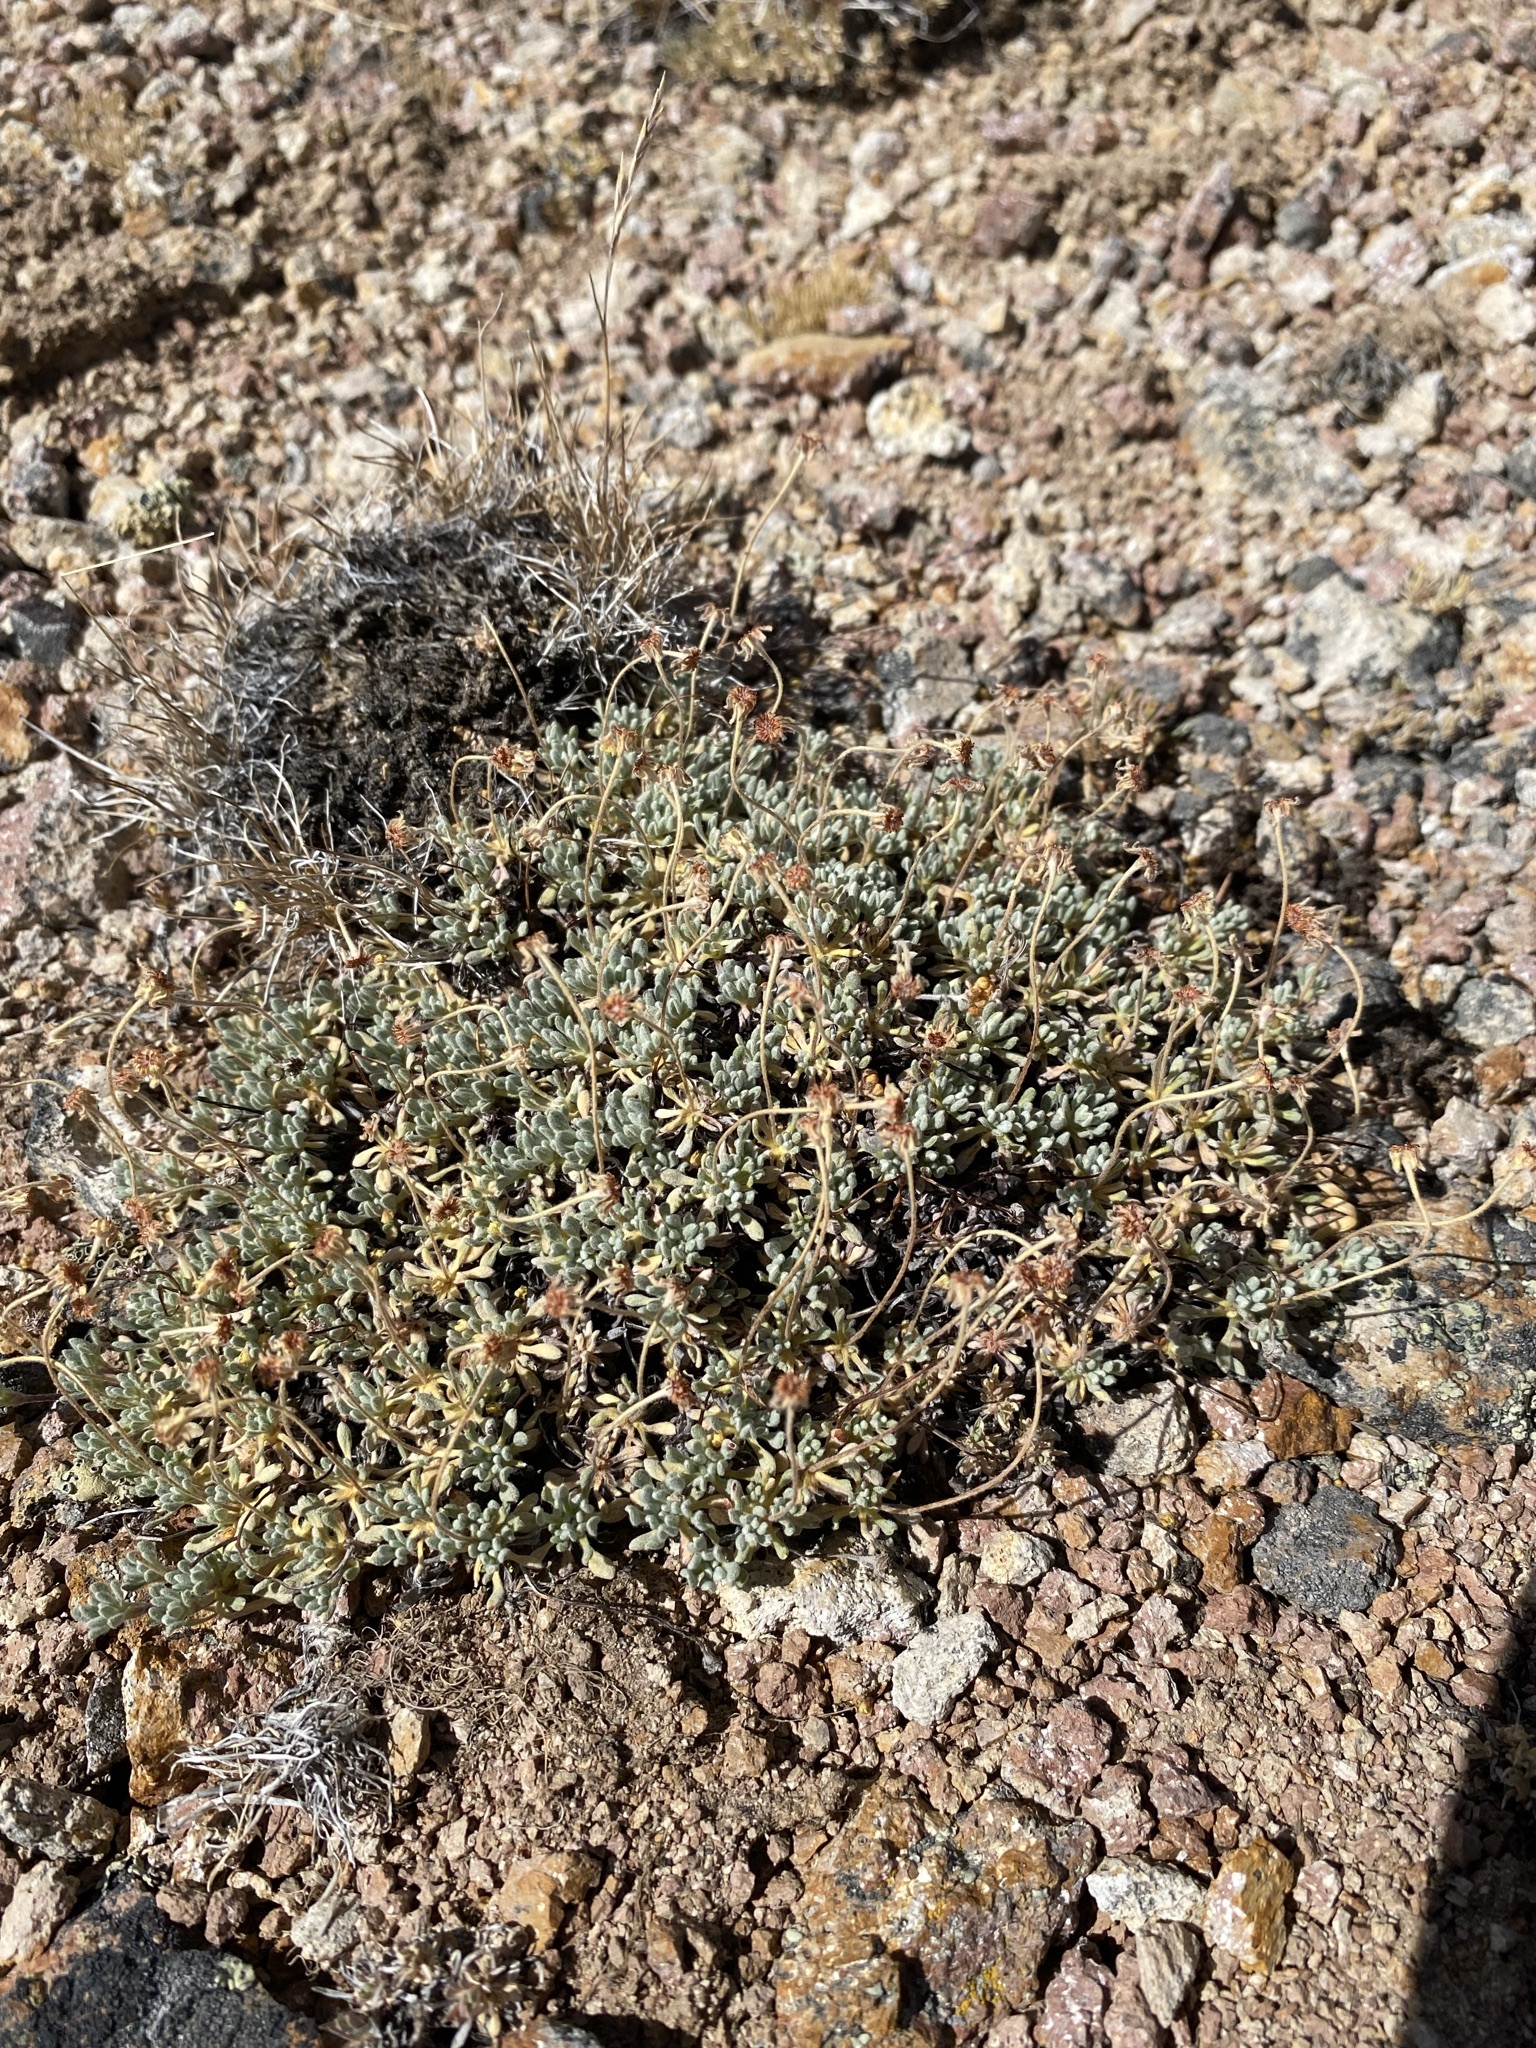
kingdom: Plantae
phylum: Tracheophyta
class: Magnoliopsida
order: Caryophyllales
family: Polygonaceae
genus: Eriogonum
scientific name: Eriogonum caespitosum
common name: Matted wild buckwheat
